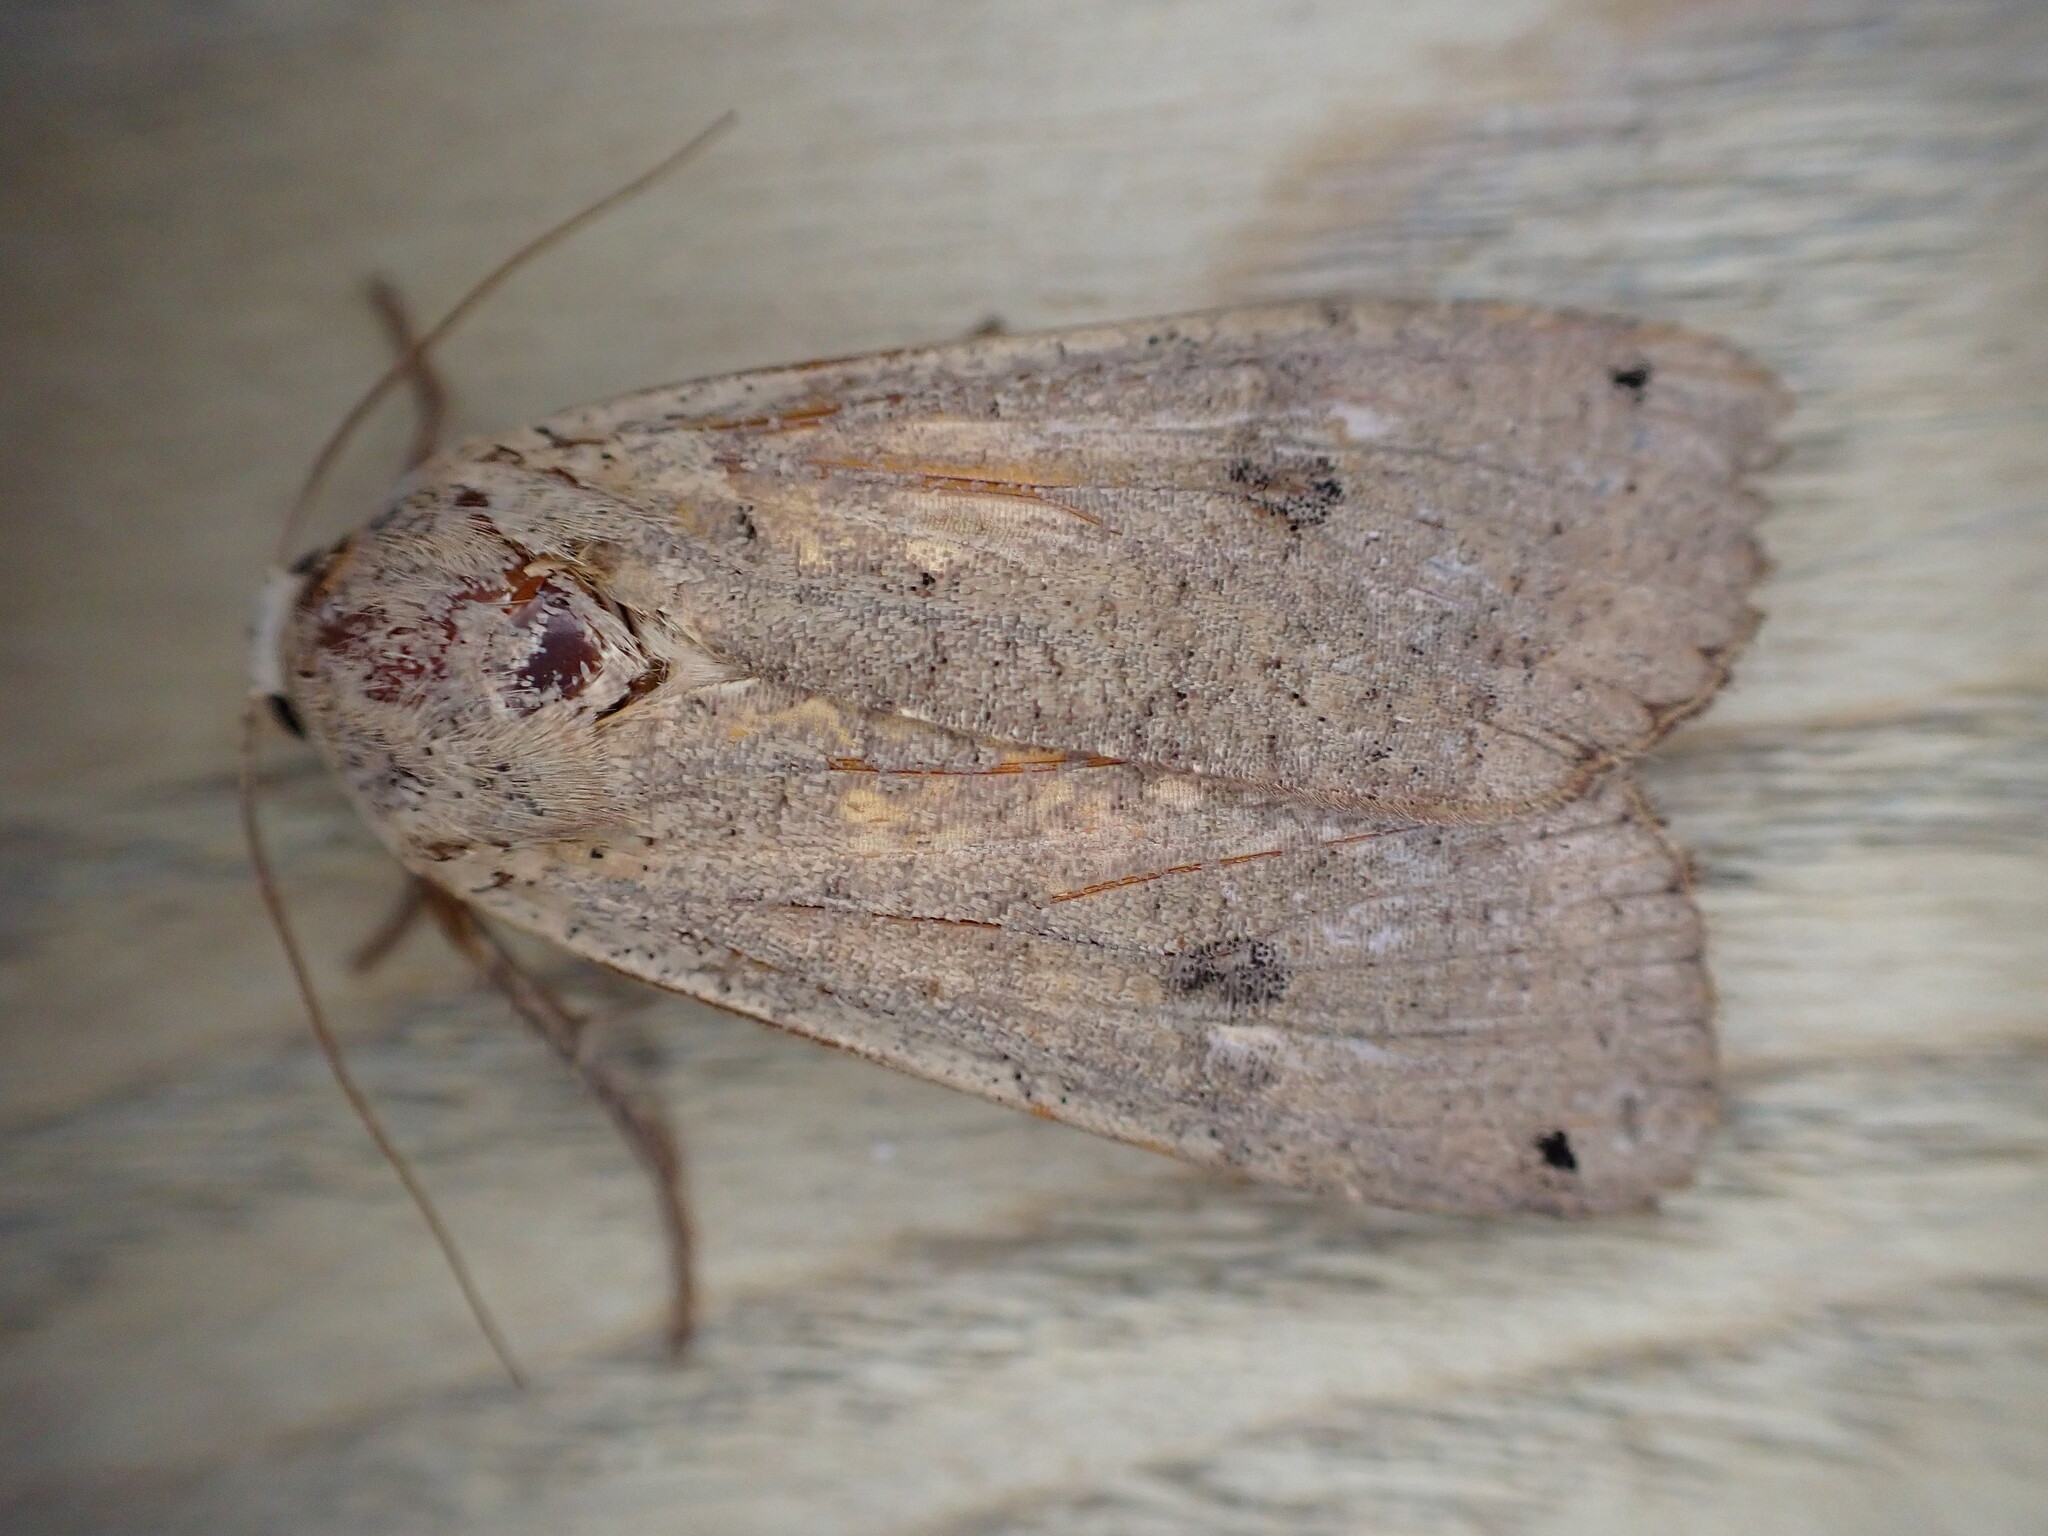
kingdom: Animalia
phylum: Arthropoda
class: Insecta
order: Lepidoptera
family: Noctuidae
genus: Noctua
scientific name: Noctua pronuba
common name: Large yellow underwing
